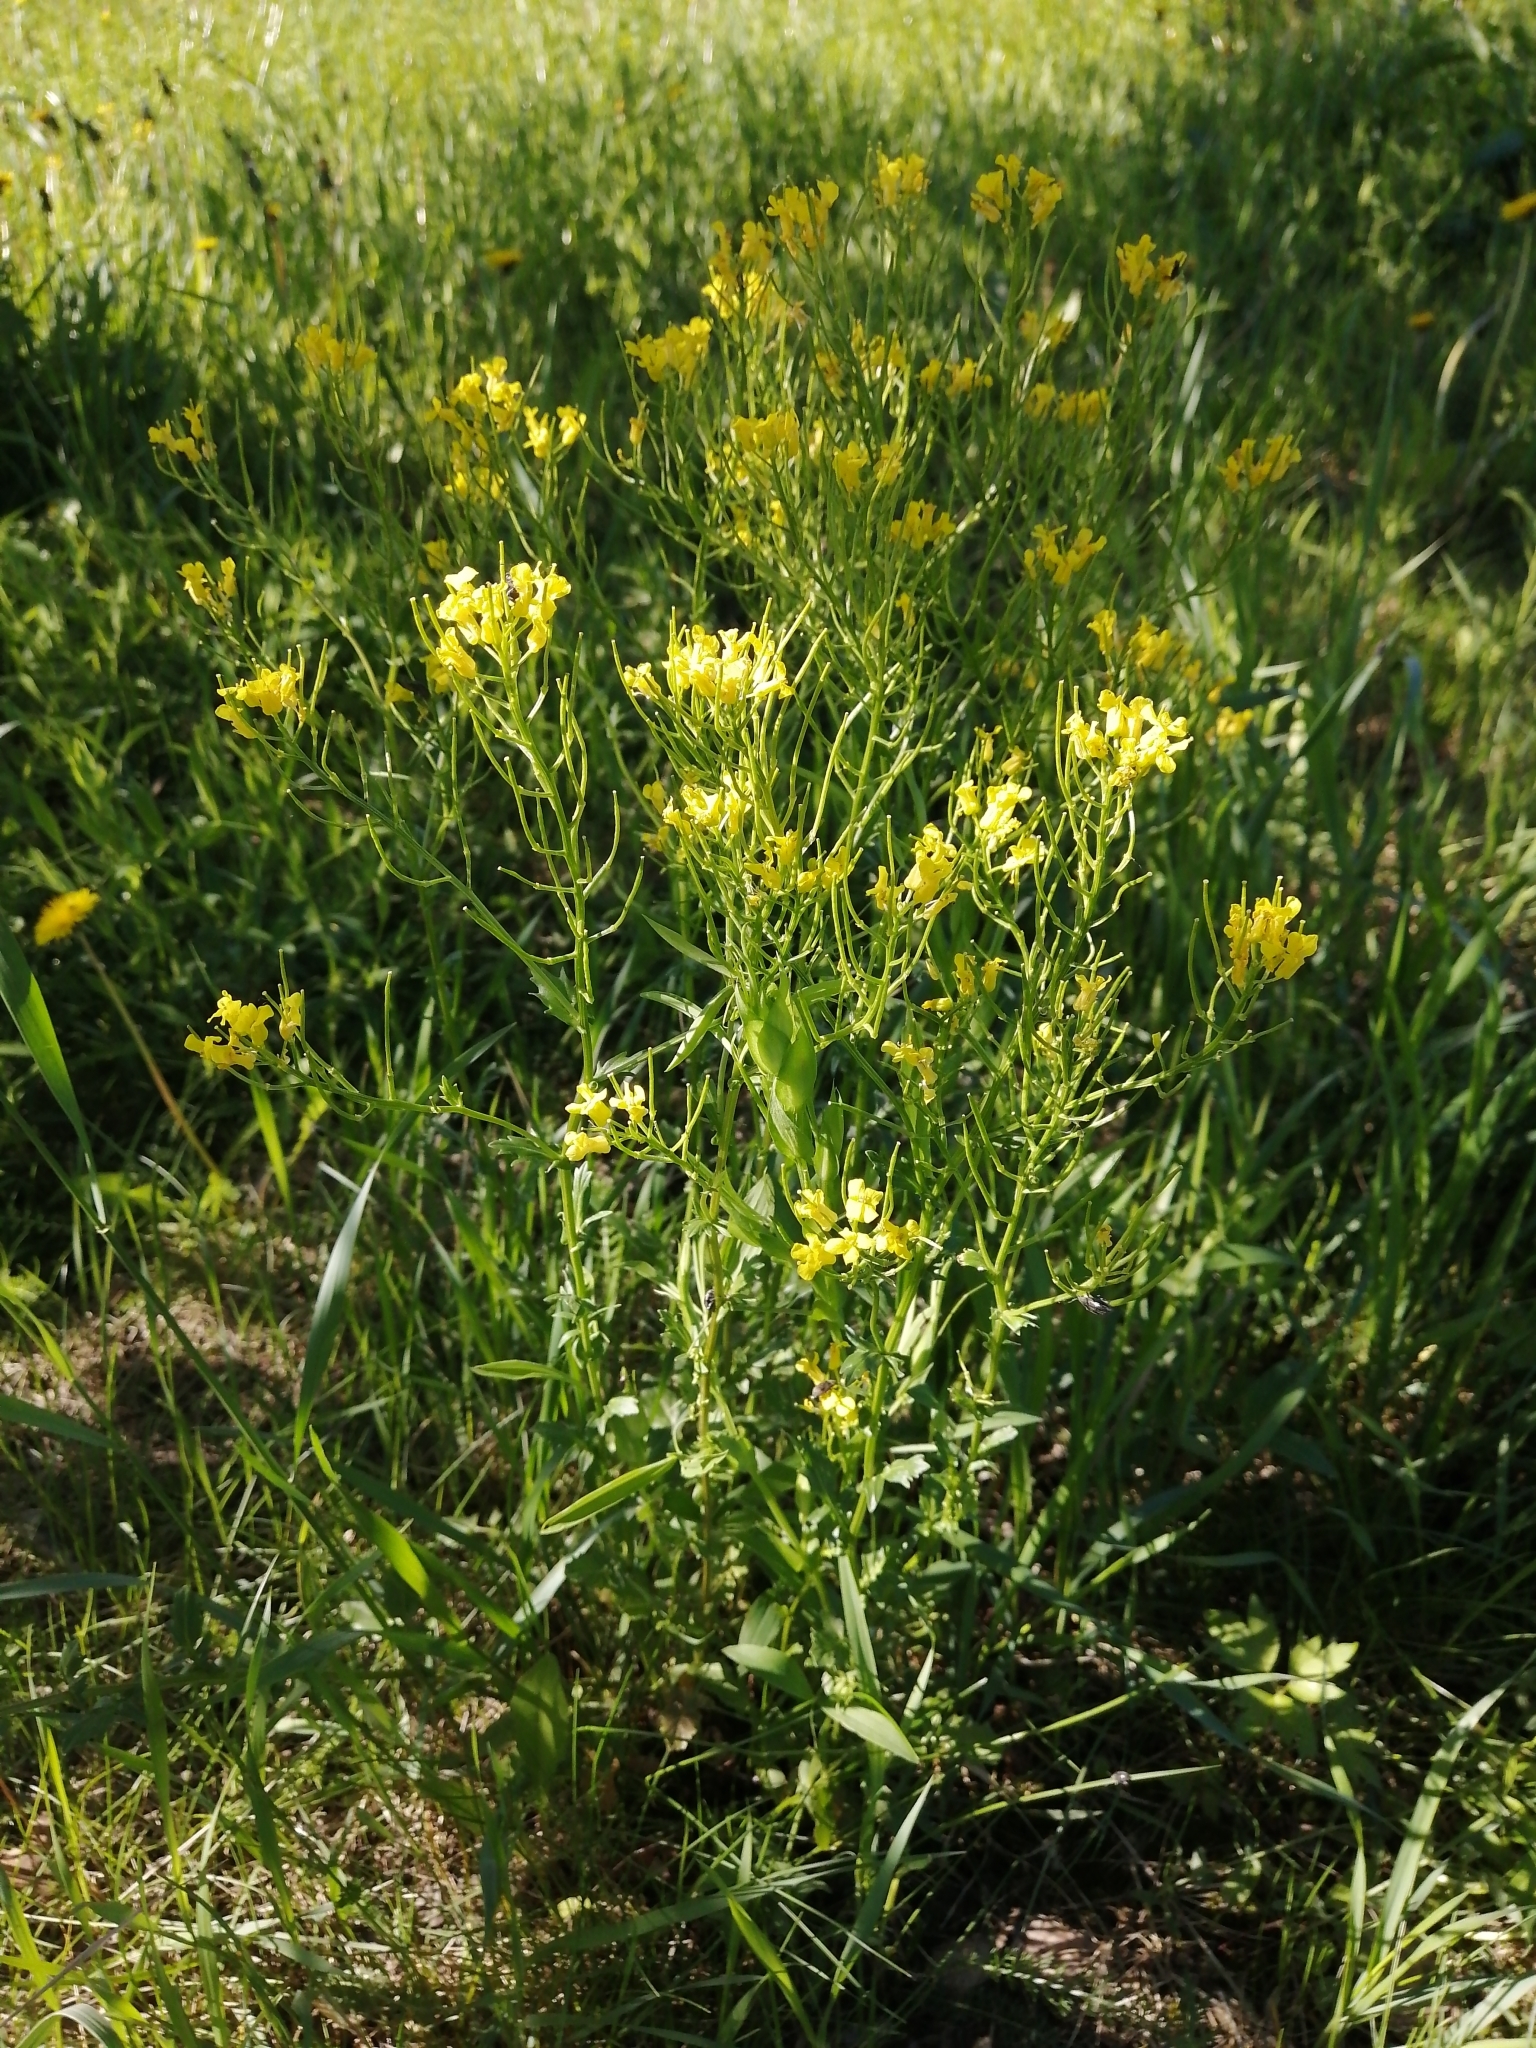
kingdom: Plantae
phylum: Tracheophyta
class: Magnoliopsida
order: Brassicales
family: Brassicaceae
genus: Barbarea
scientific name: Barbarea vulgaris
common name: Cressy-greens
